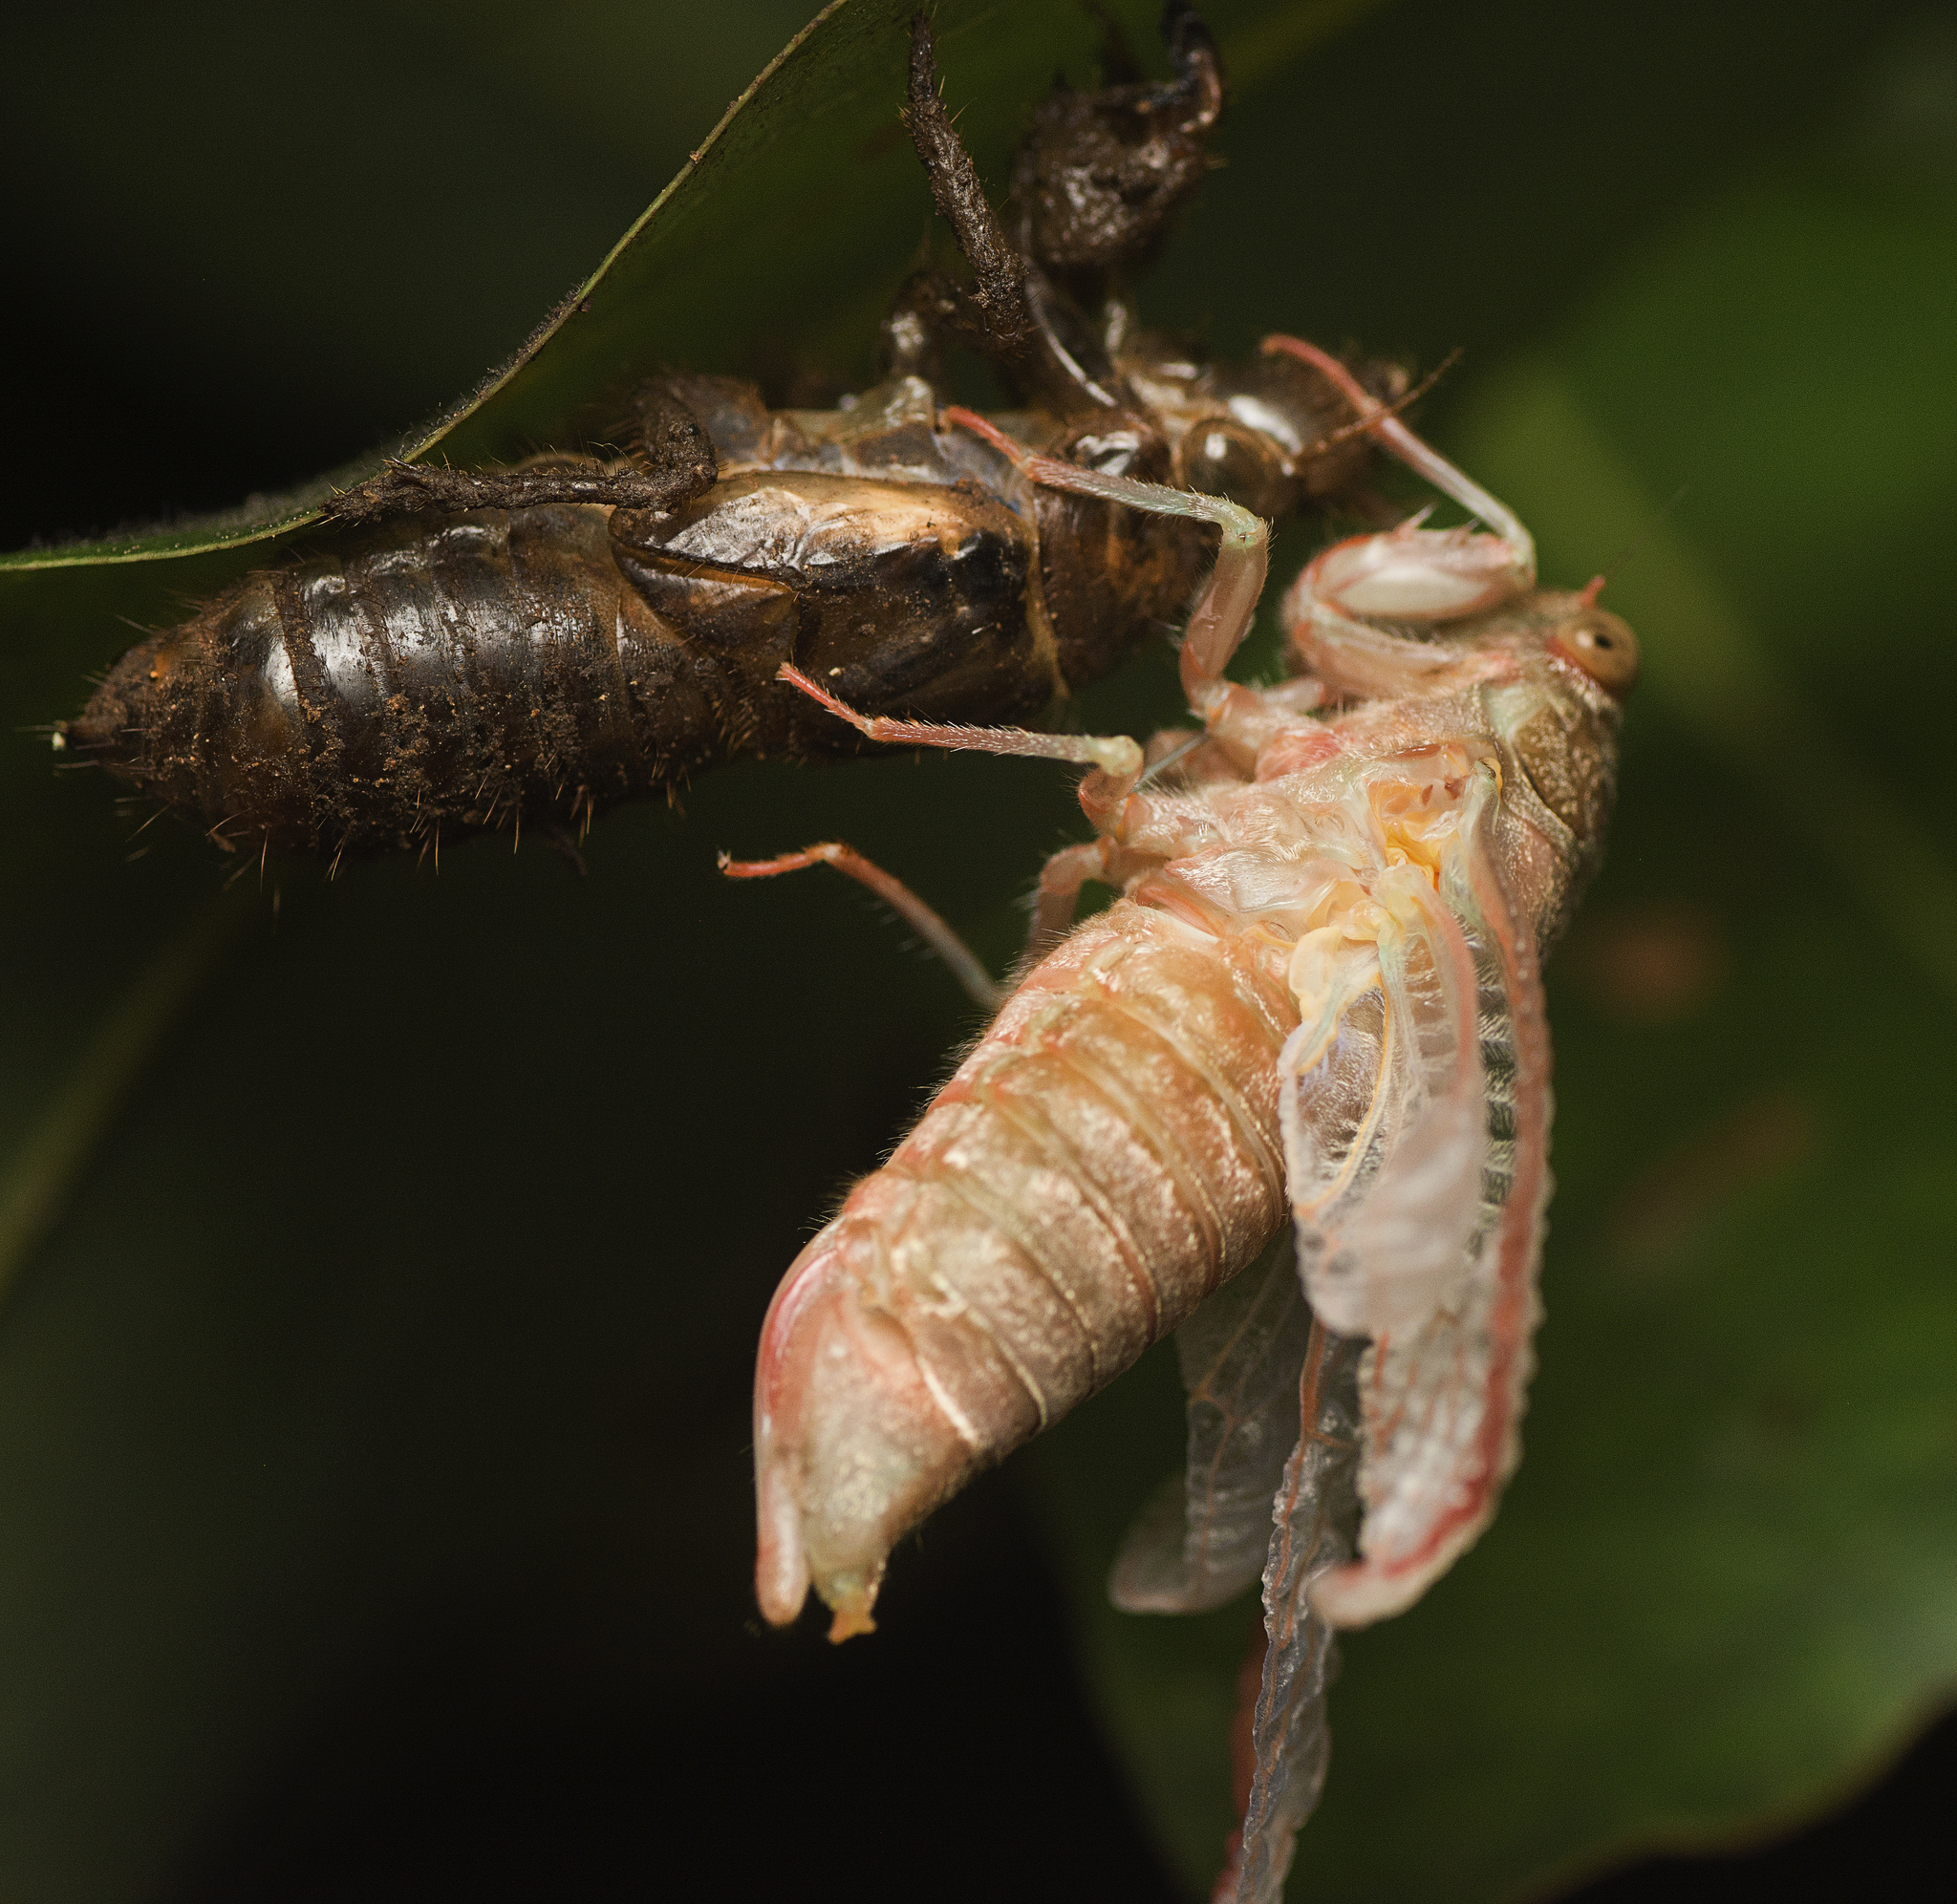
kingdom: Animalia
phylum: Arthropoda
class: Insecta
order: Hemiptera
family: Cicadidae
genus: Tamasa
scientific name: Tamasa tristigma
